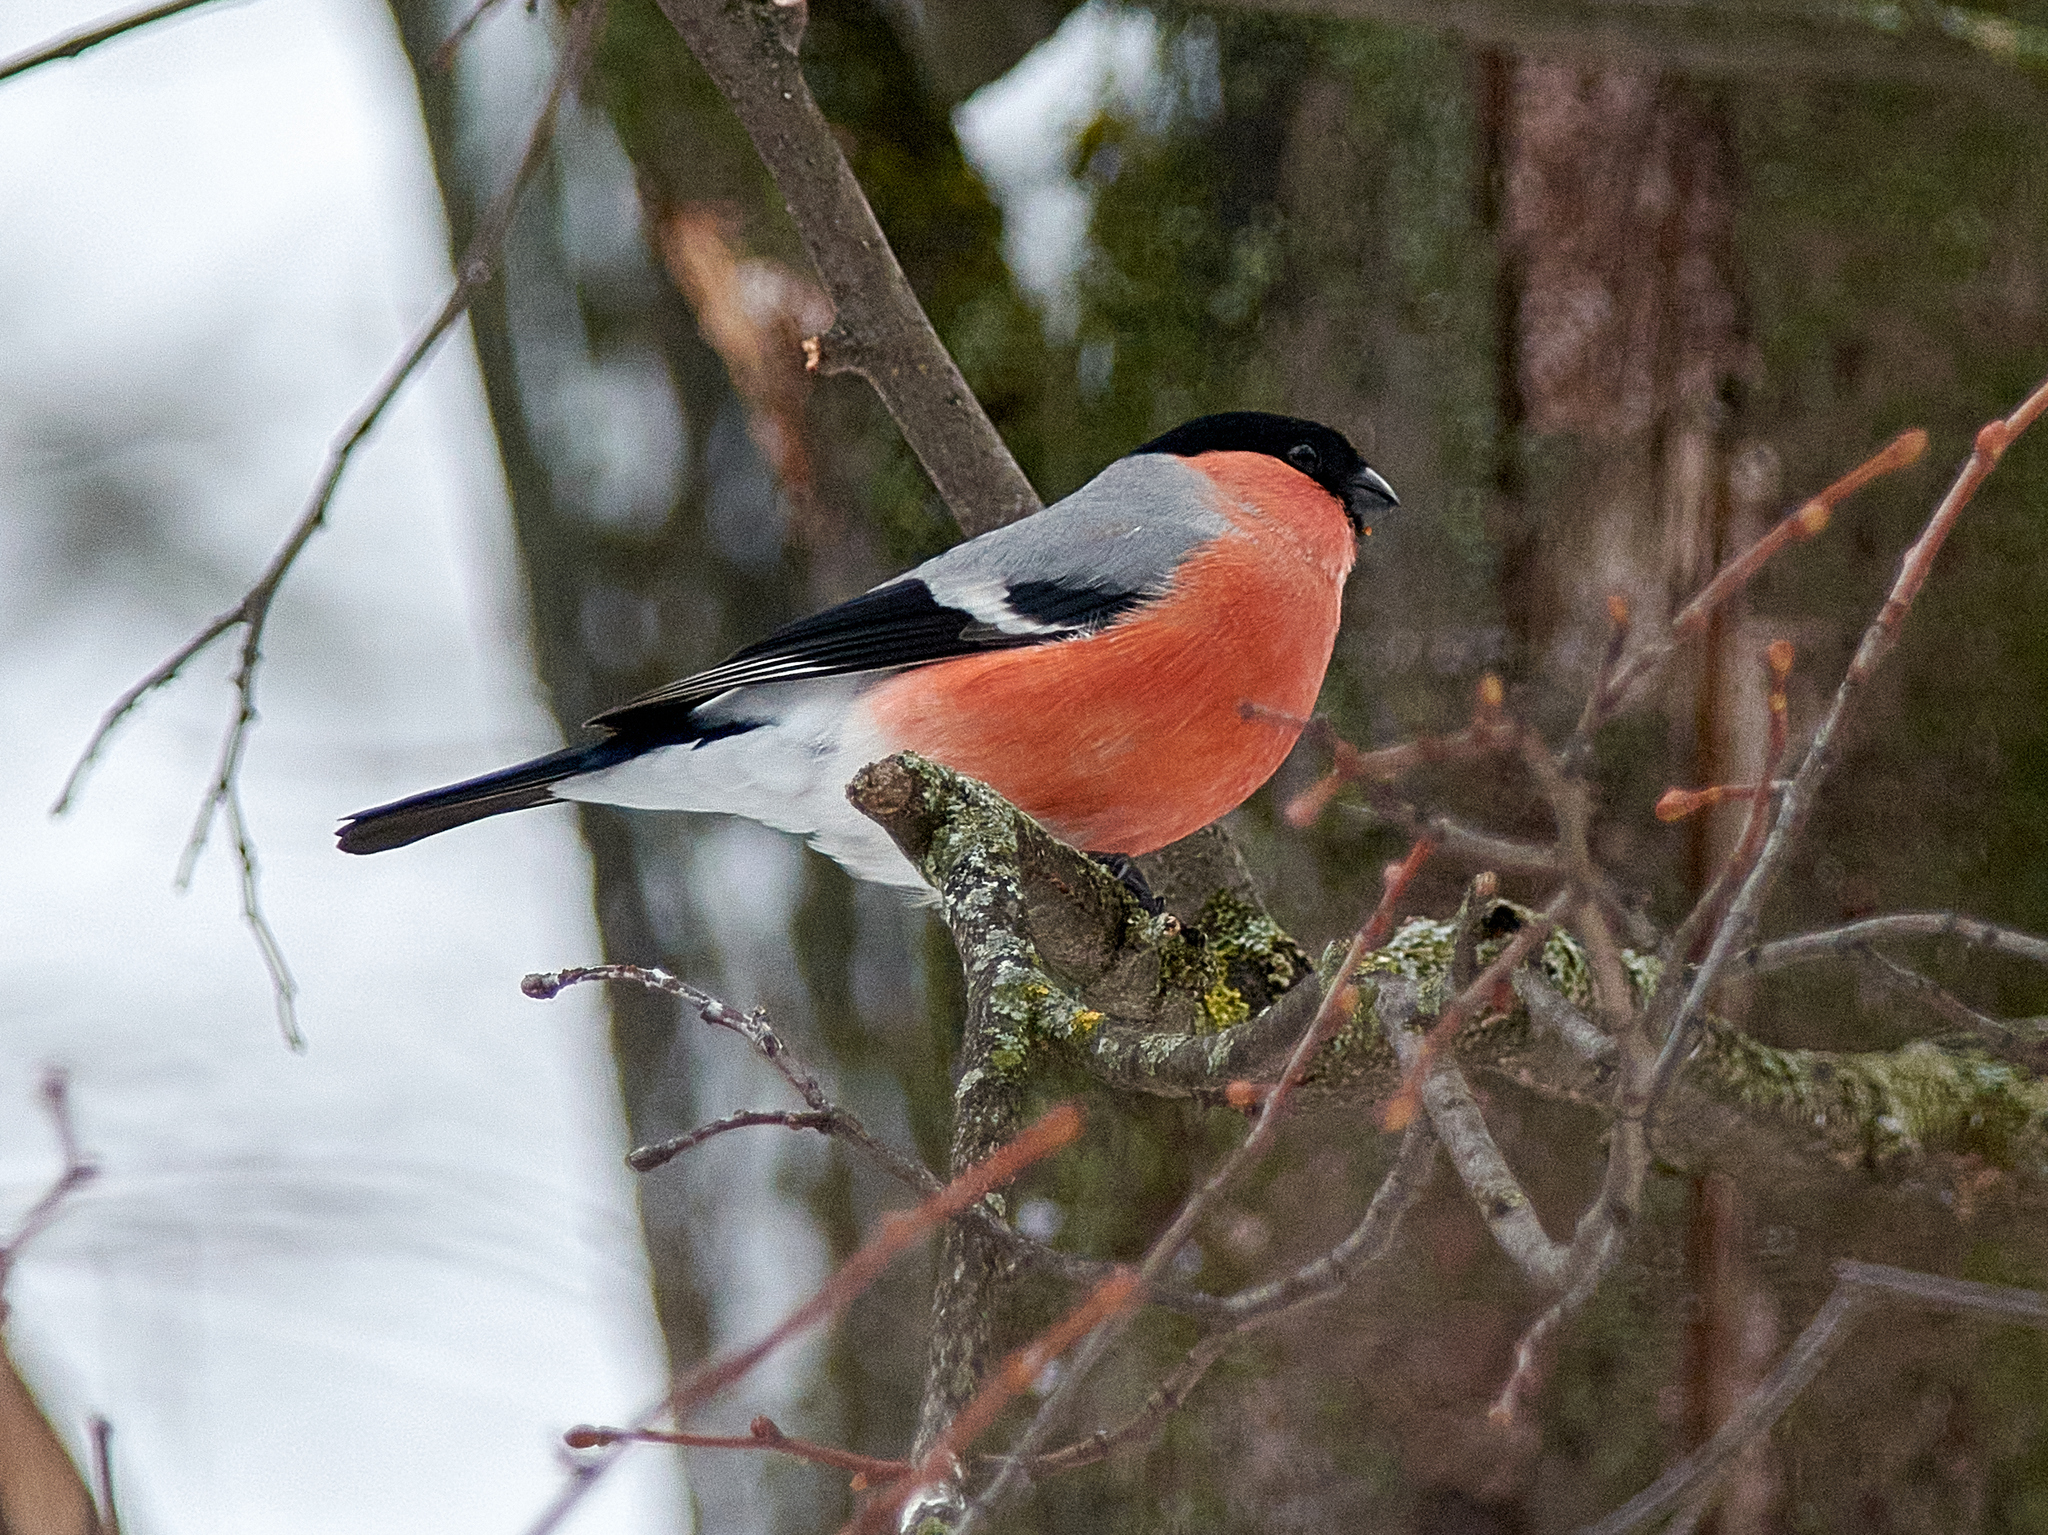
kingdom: Animalia
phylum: Chordata
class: Aves
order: Passeriformes
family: Fringillidae
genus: Pyrrhula
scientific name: Pyrrhula pyrrhula
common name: Eurasian bullfinch
